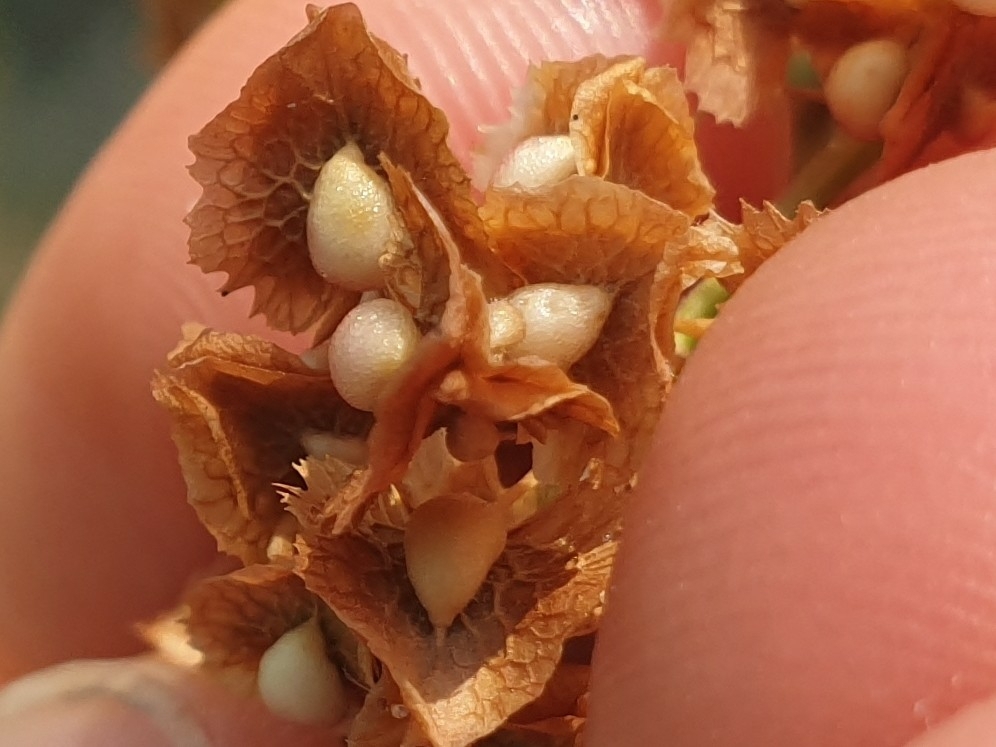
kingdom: Plantae
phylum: Tracheophyta
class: Magnoliopsida
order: Caryophyllales
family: Polygonaceae
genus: Rumex
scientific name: Rumex cristatus
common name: Greek dock
